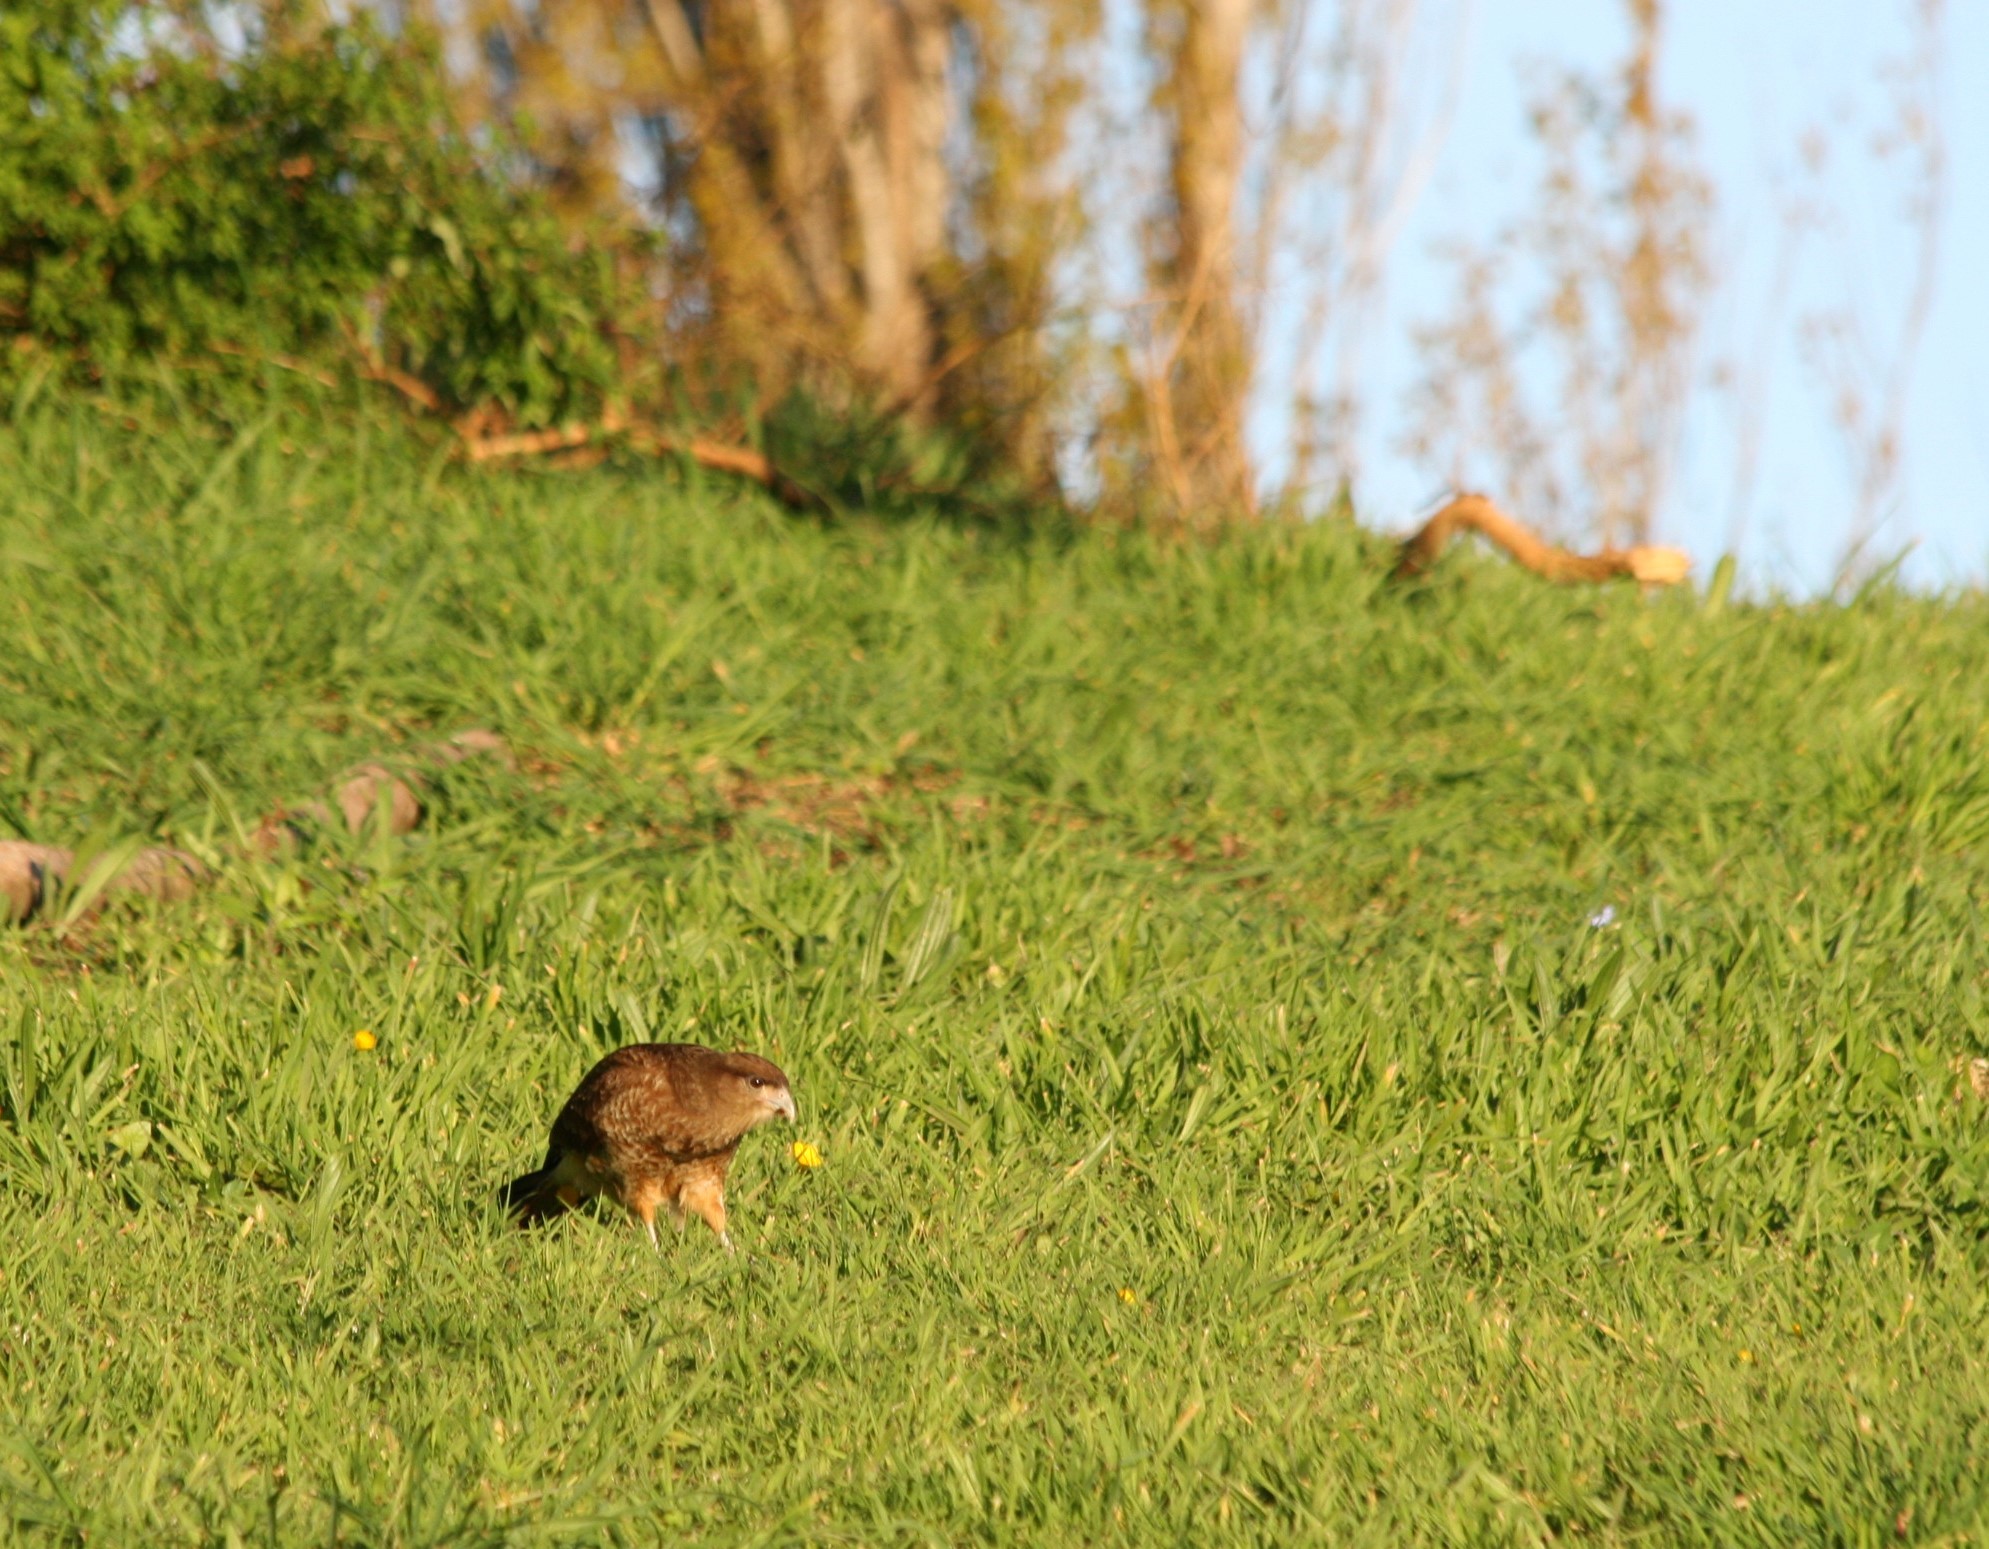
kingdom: Animalia
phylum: Chordata
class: Aves
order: Falconiformes
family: Falconidae
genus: Daptrius
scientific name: Daptrius
